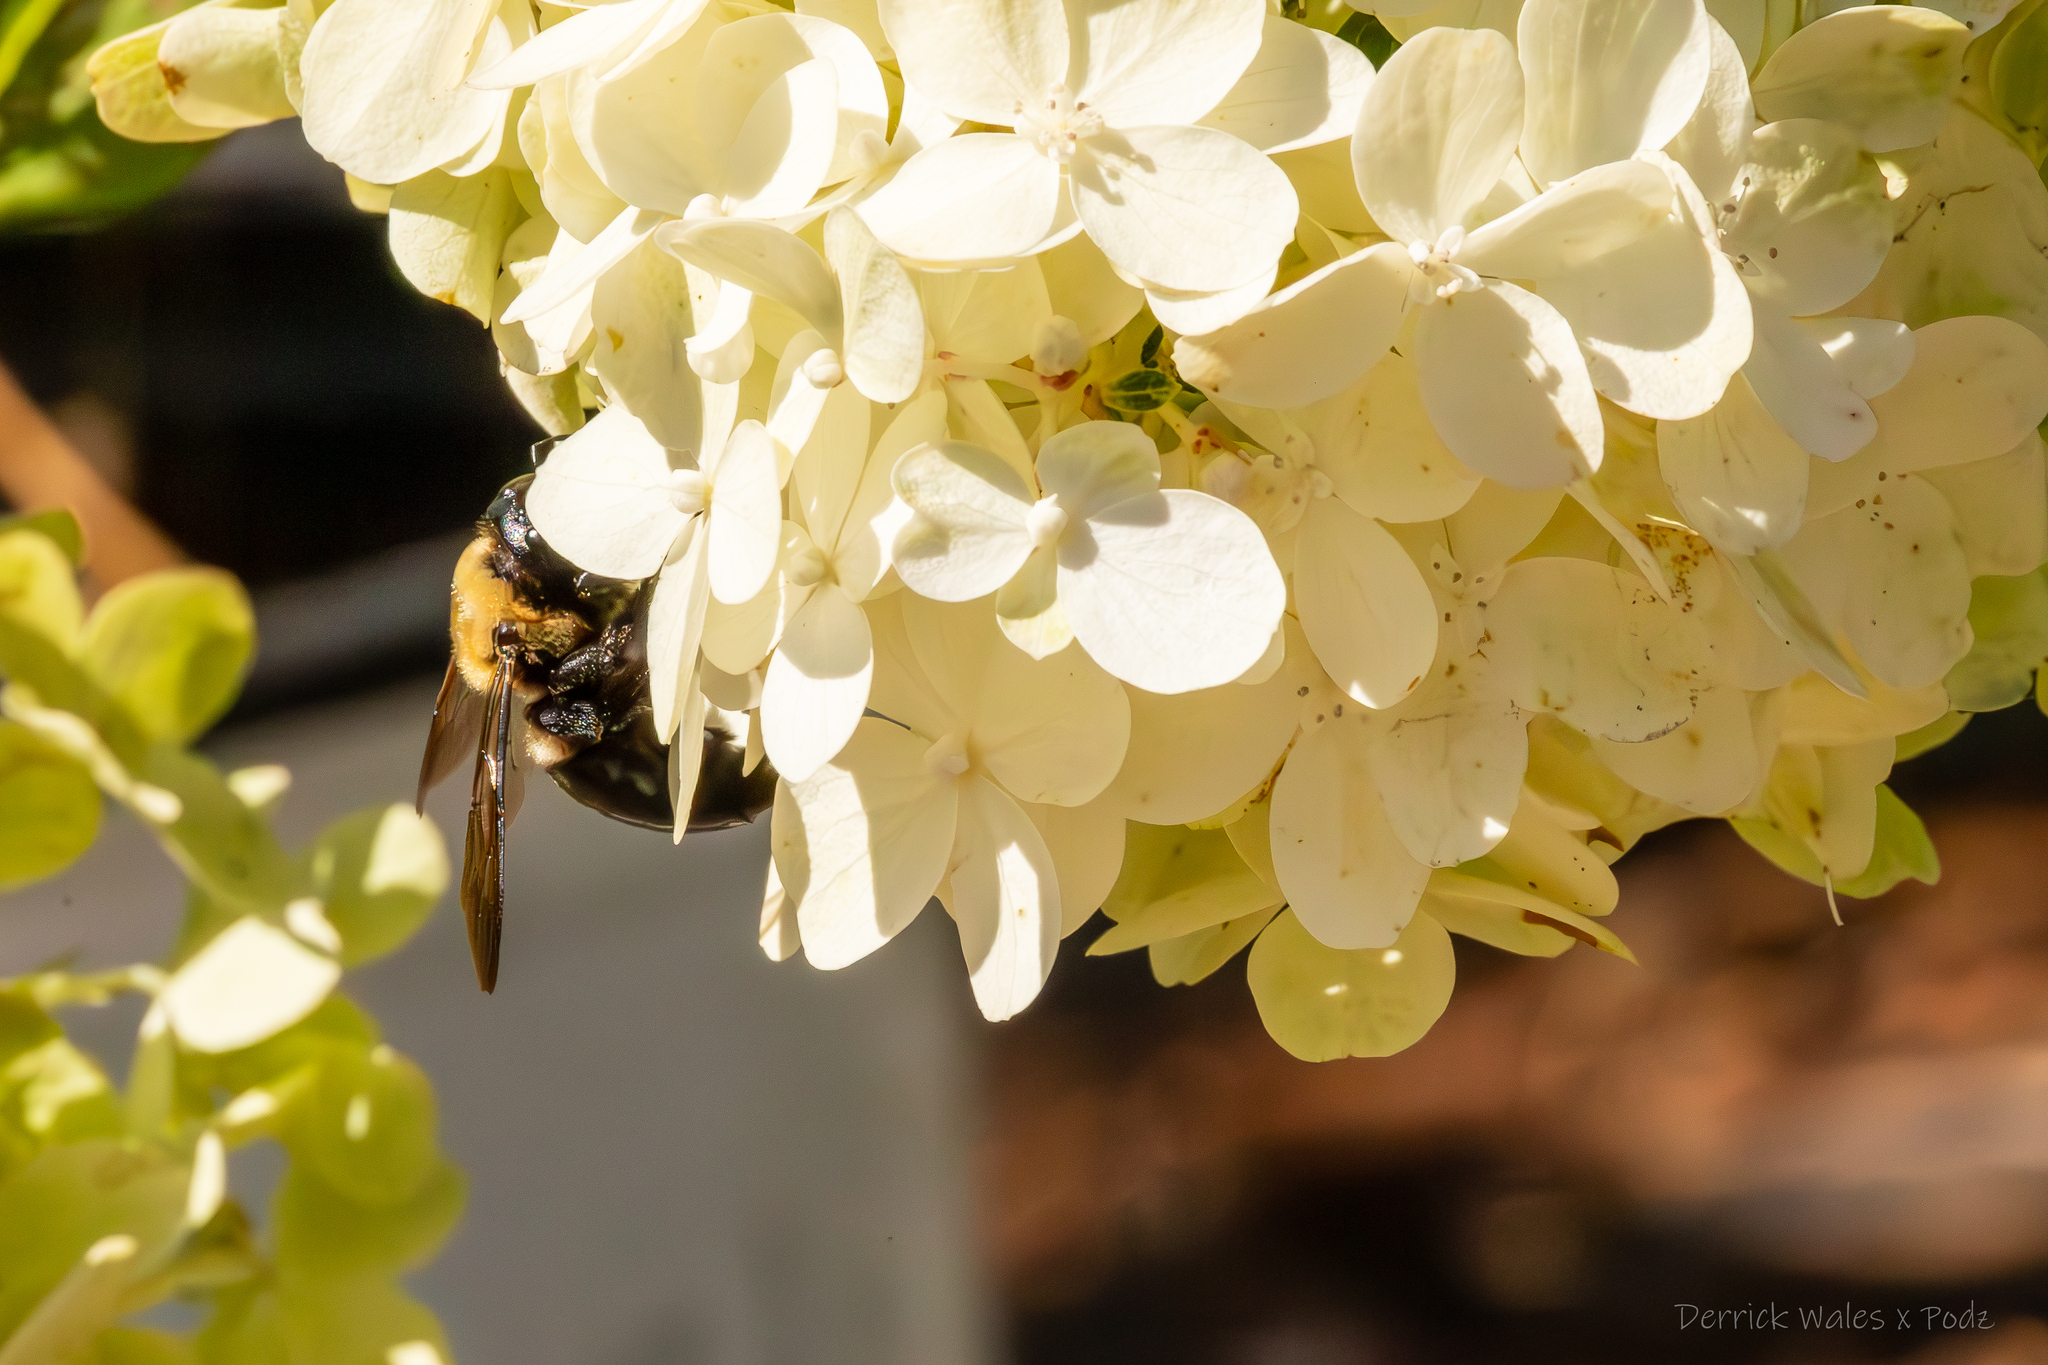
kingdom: Animalia
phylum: Arthropoda
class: Insecta
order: Hymenoptera
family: Apidae
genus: Xylocopa
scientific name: Xylocopa virginica
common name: Carpenter bee
